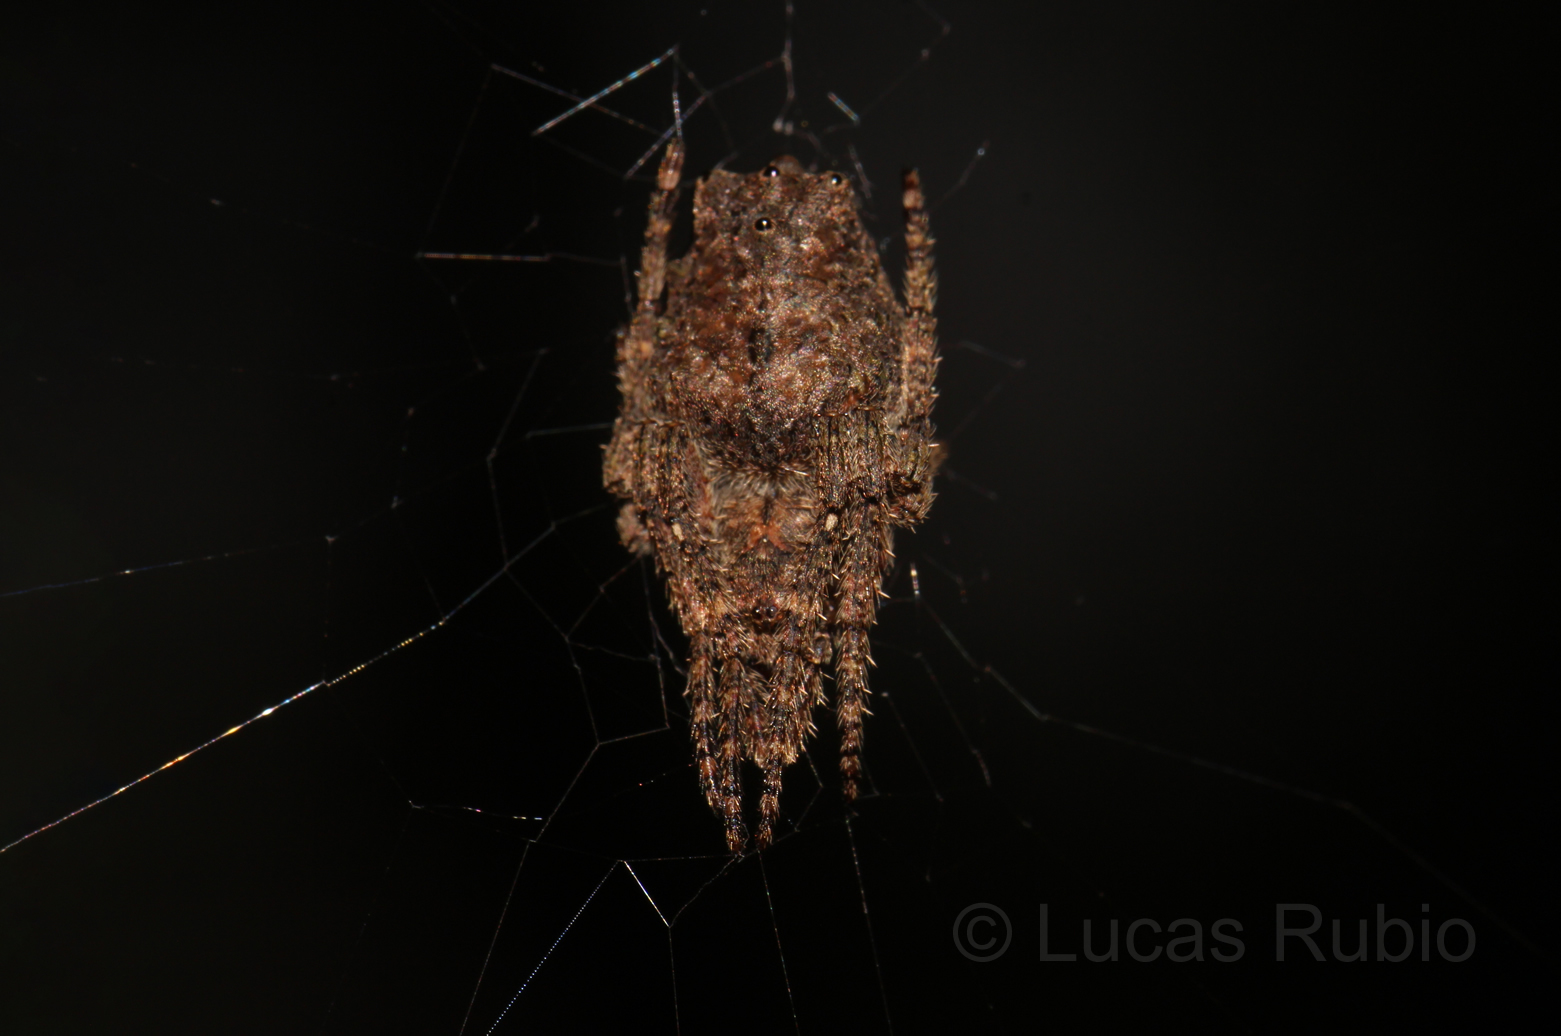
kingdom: Animalia
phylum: Arthropoda
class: Arachnida
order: Araneae
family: Araneidae
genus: Parawixia
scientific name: Parawixia velutina
